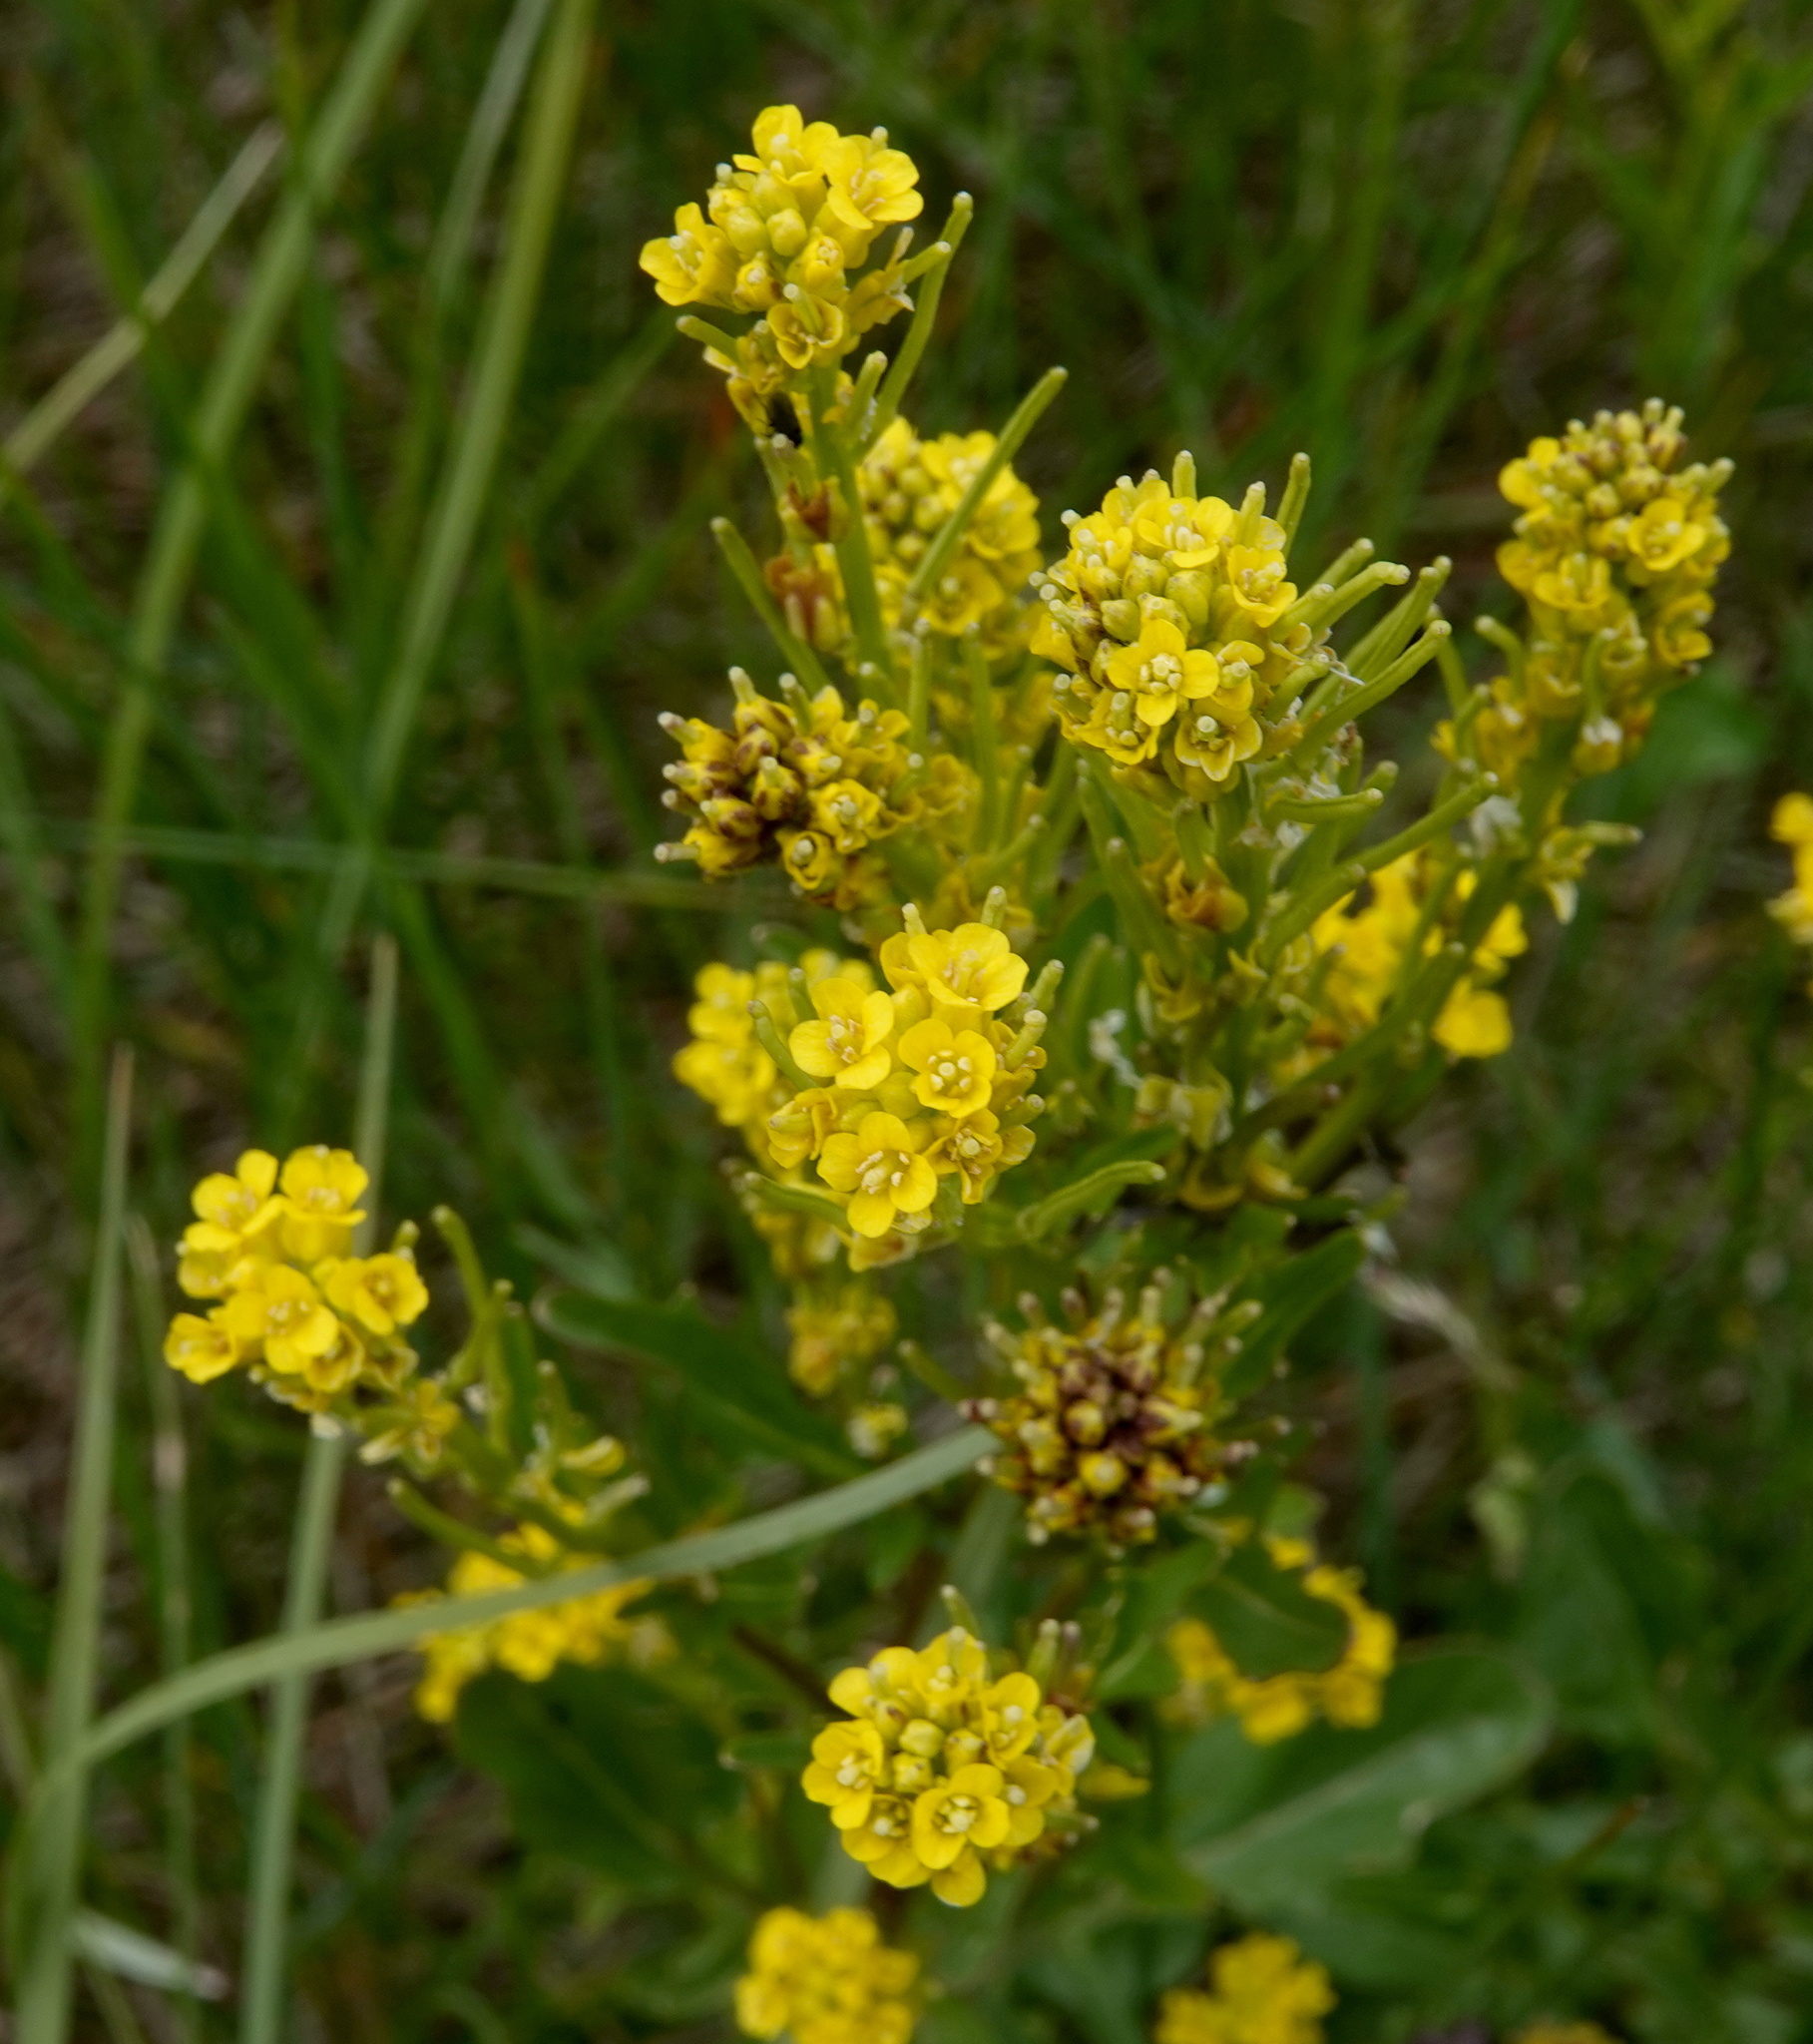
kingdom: Plantae
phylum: Tracheophyta
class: Magnoliopsida
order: Brassicales
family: Brassicaceae
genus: Barbarea
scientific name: Barbarea orthoceras
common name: American wintercress
